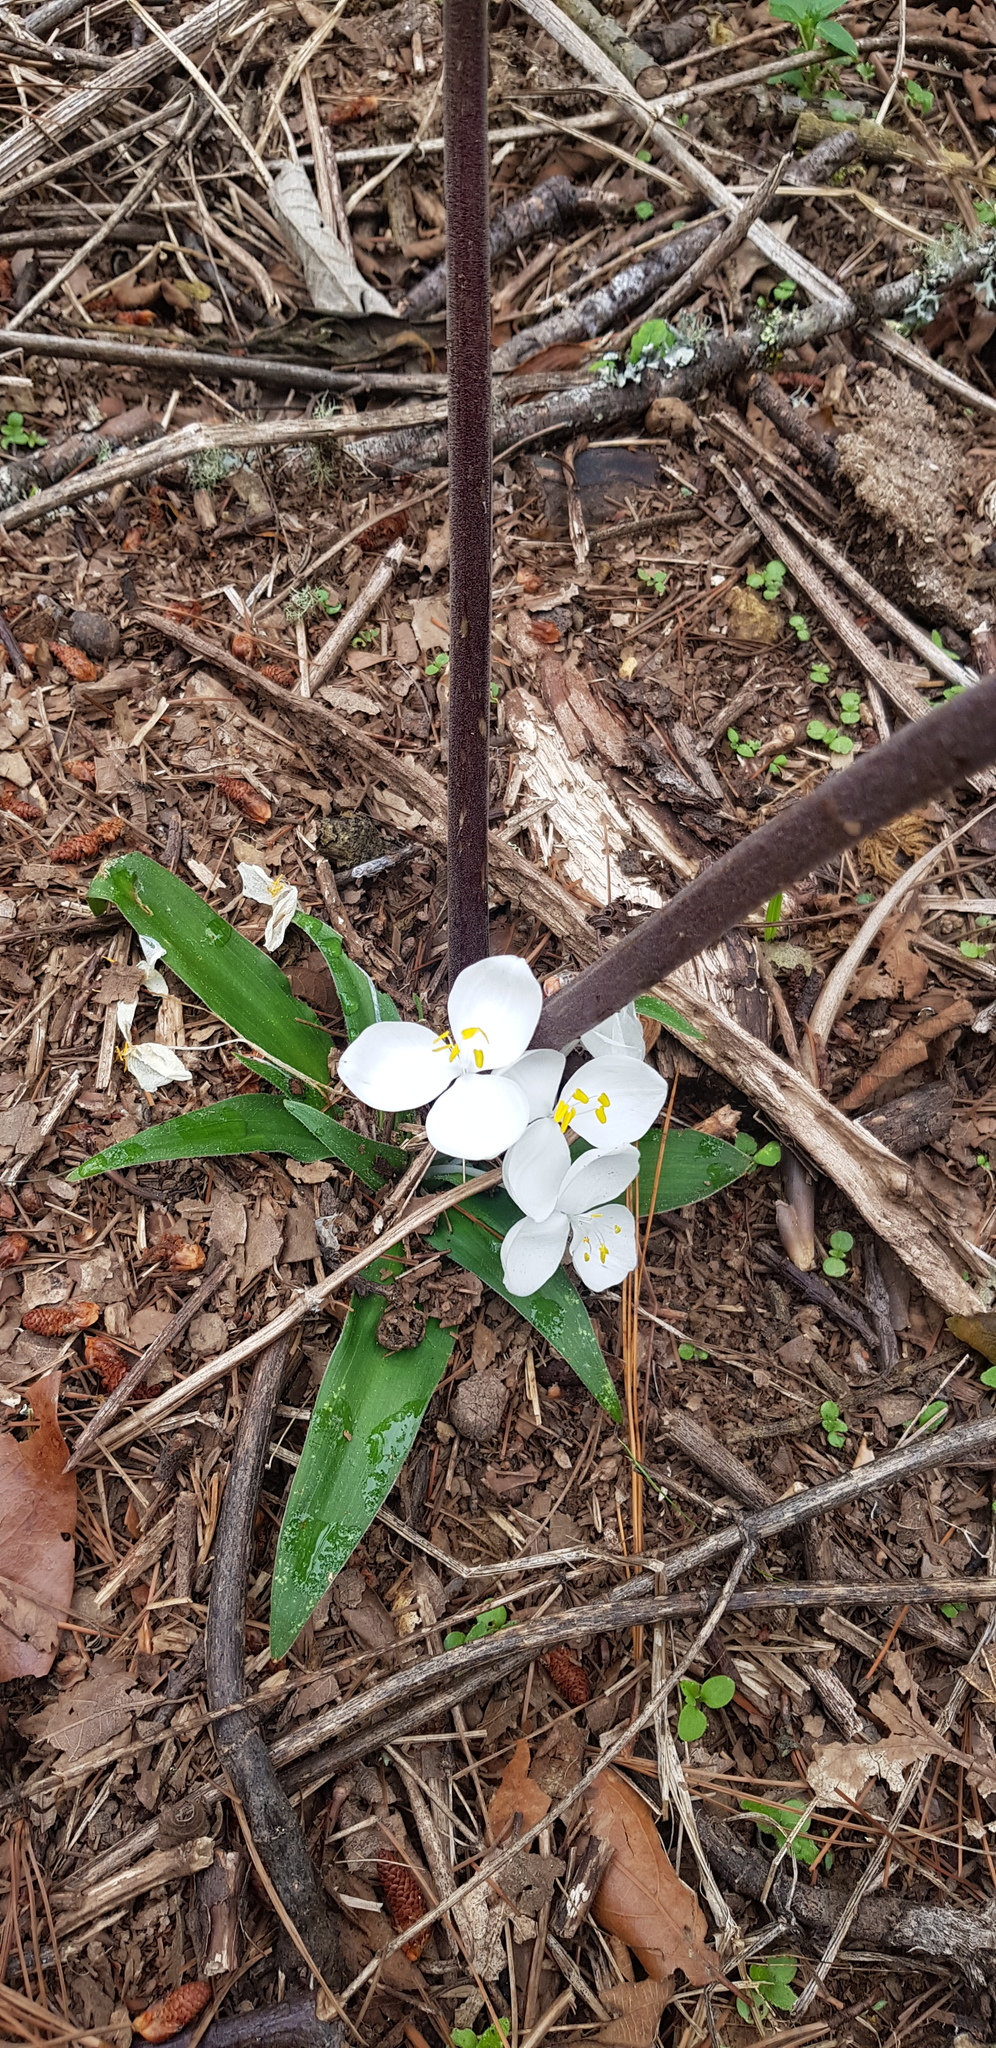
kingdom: Plantae
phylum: Tracheophyta
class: Liliopsida
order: Commelinales
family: Commelinaceae
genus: Weldenia
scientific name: Weldenia candida
